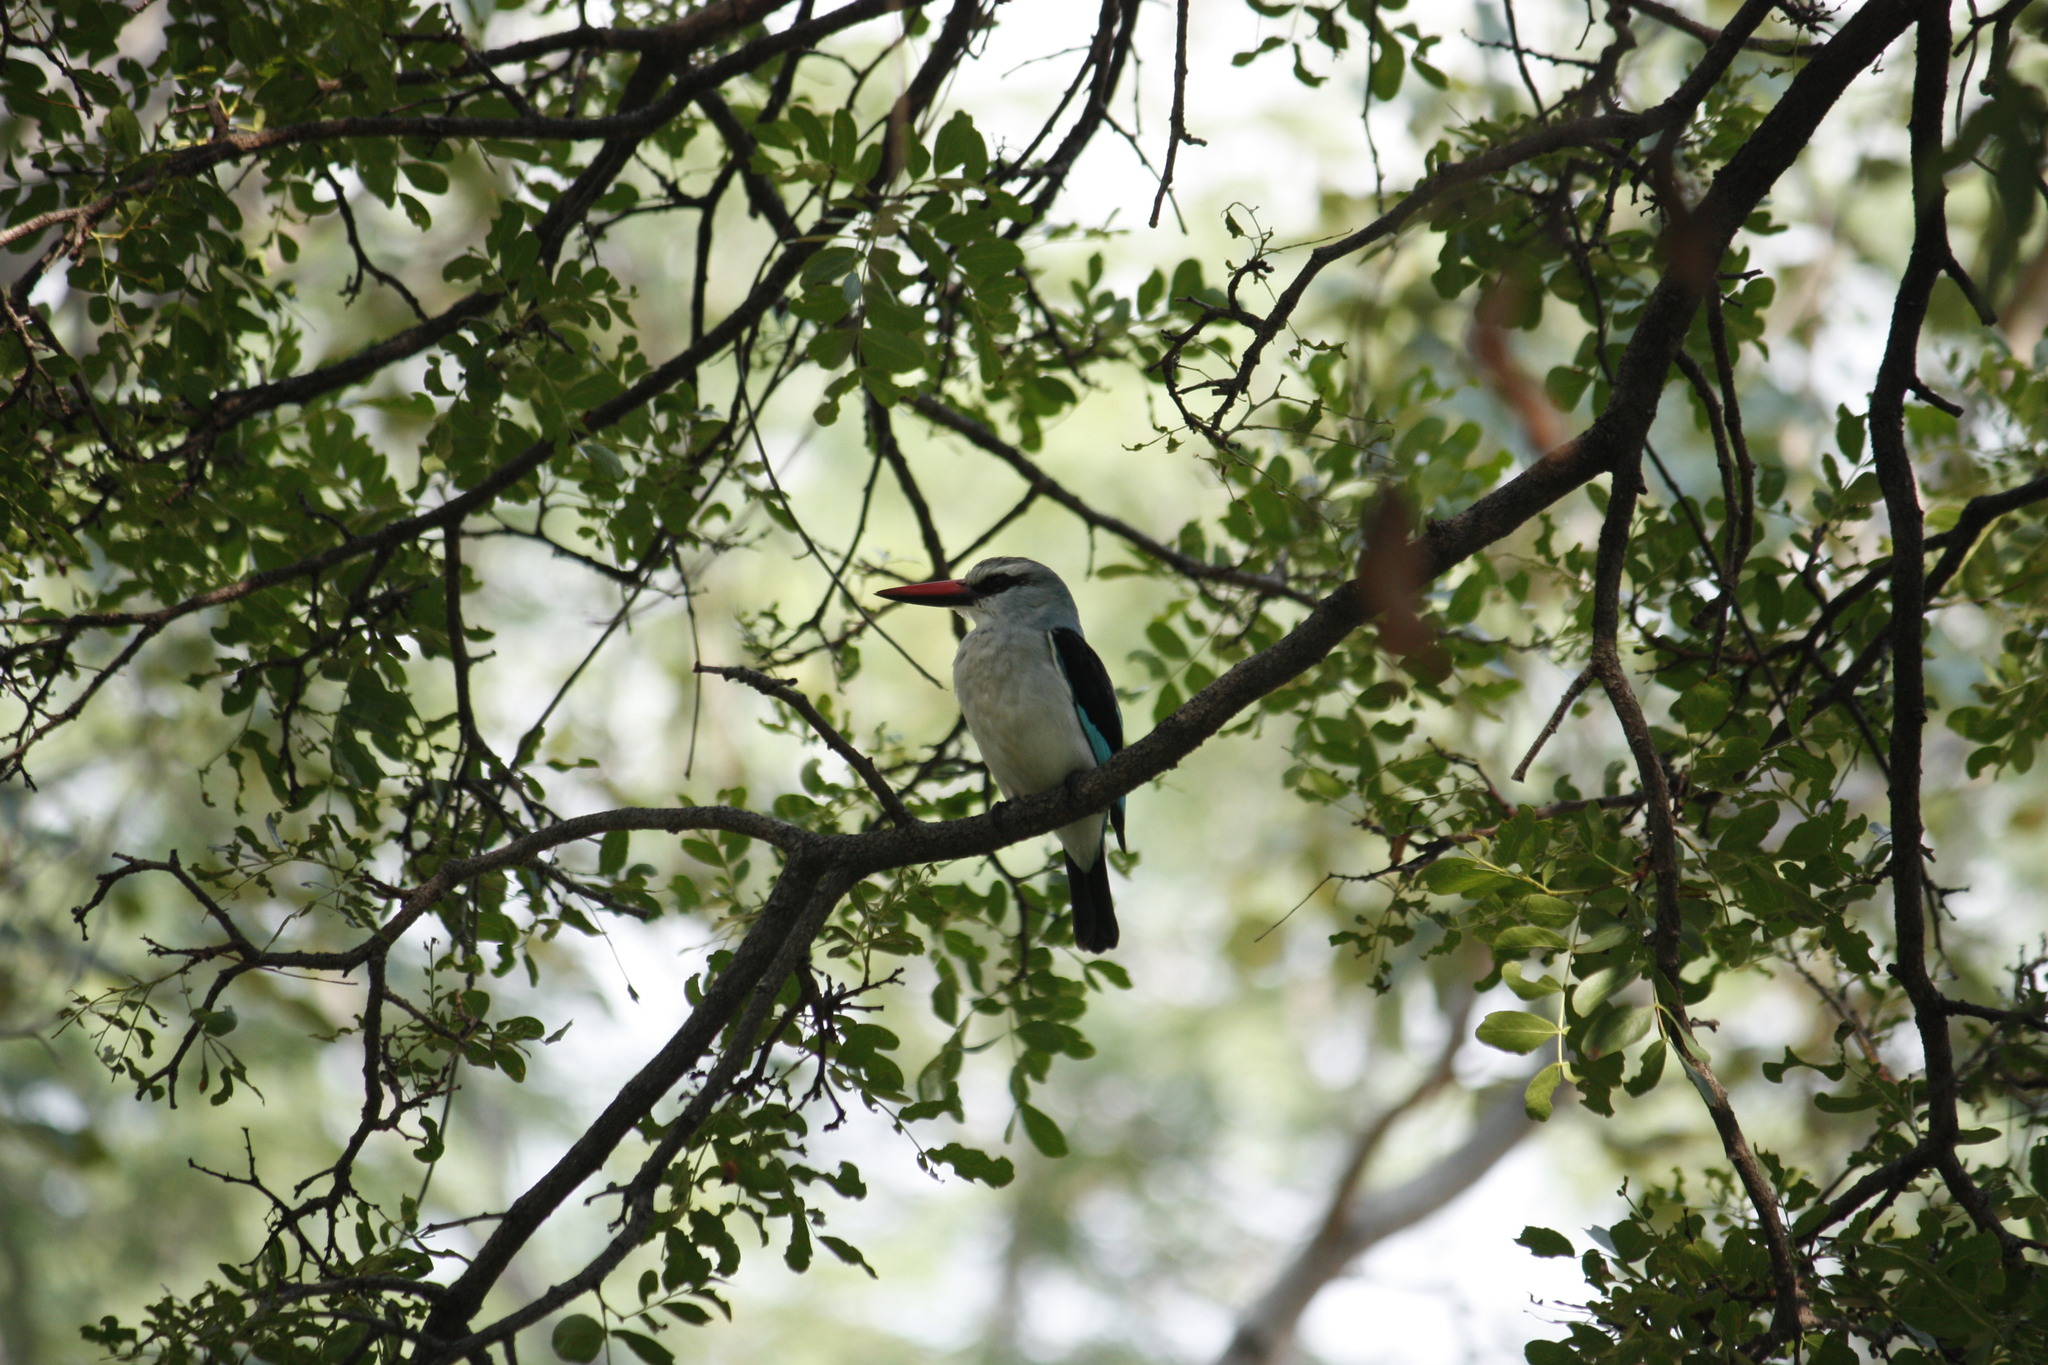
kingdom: Animalia
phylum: Chordata
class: Aves
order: Coraciiformes
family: Alcedinidae
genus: Halcyon
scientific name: Halcyon senegalensis
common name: Woodland kingfisher
